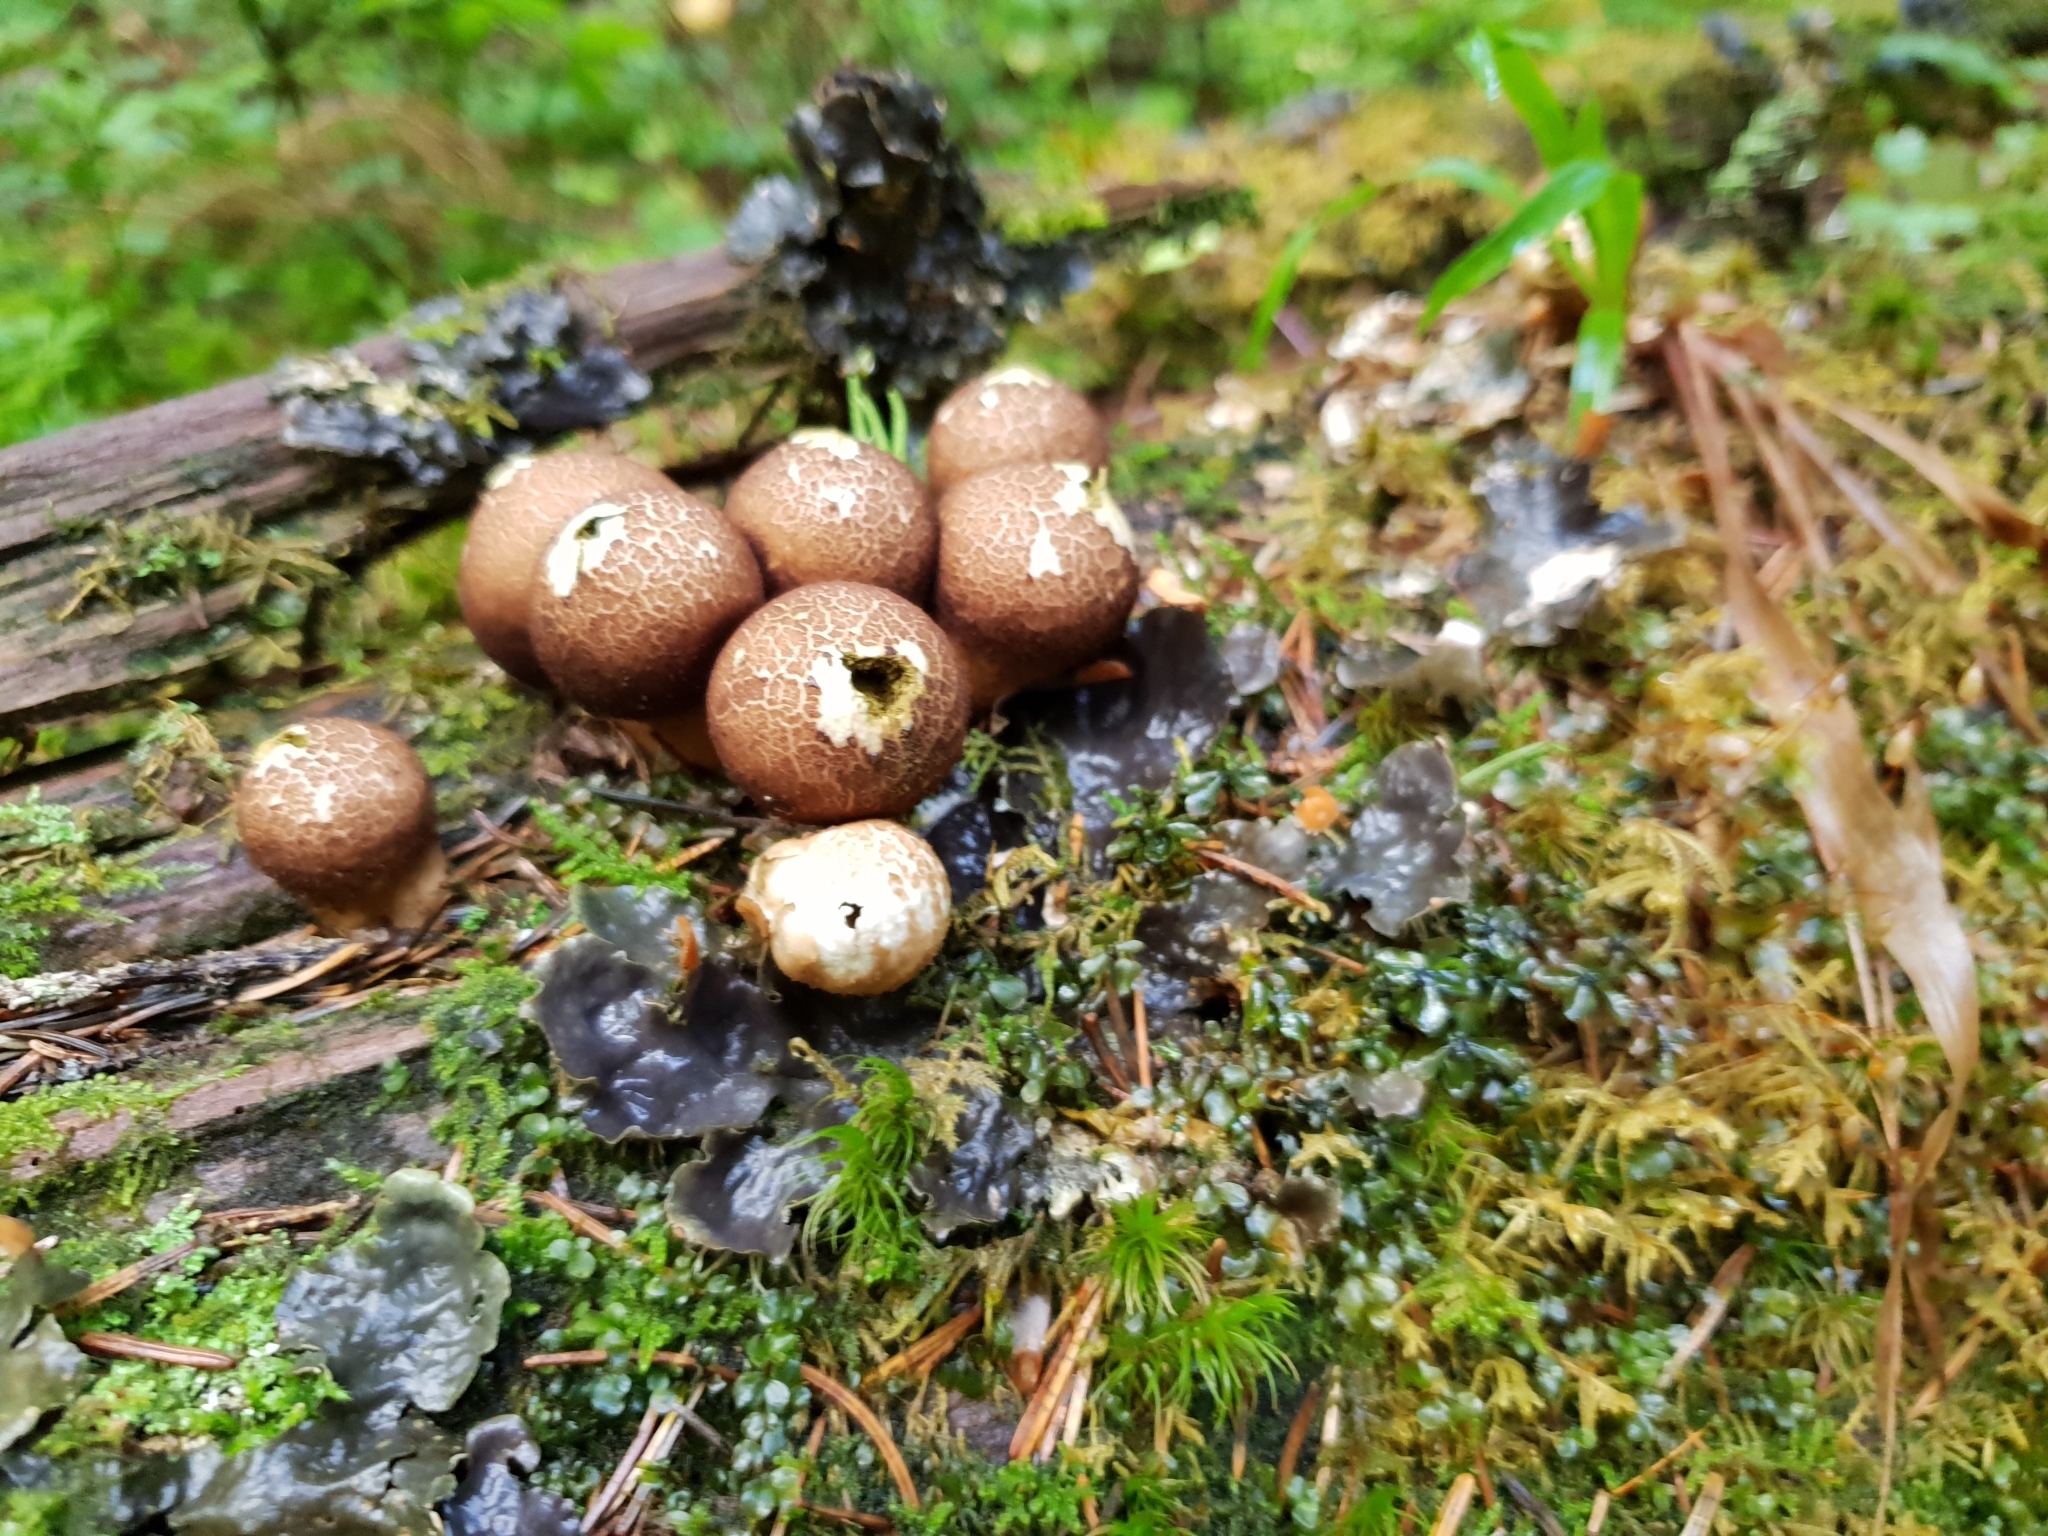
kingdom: Fungi
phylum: Basidiomycota
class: Agaricomycetes
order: Agaricales
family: Lycoperdaceae
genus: Apioperdon
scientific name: Apioperdon pyriforme
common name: Pear-shaped puffball
